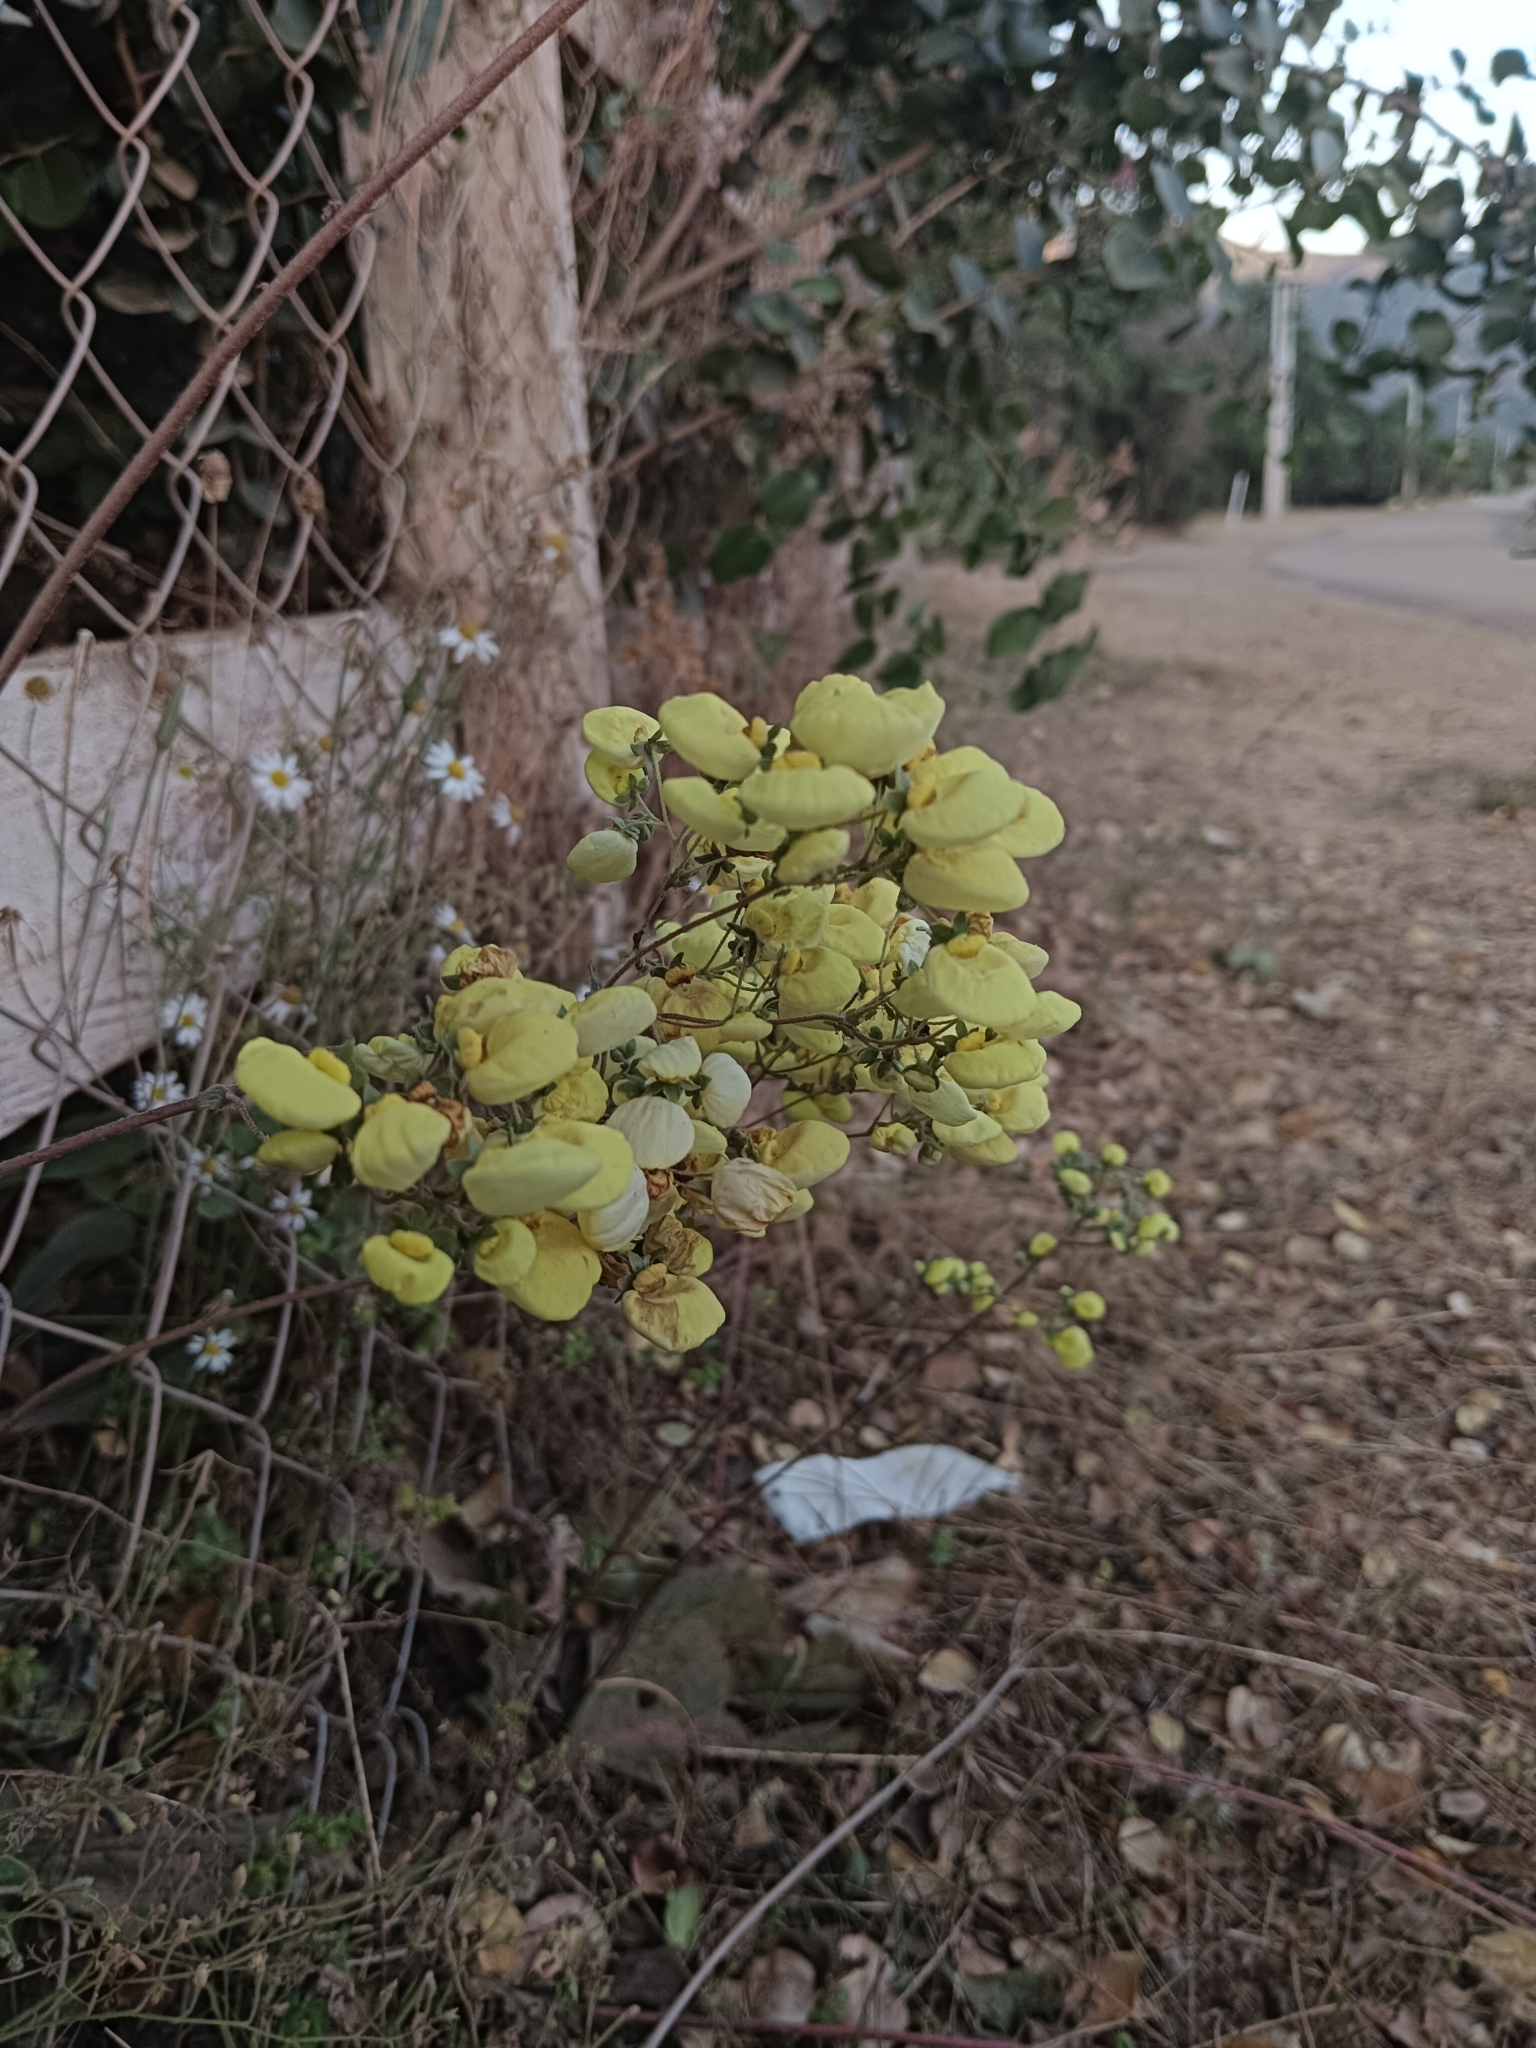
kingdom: Plantae
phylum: Tracheophyta
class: Magnoliopsida
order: Lamiales
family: Calceolariaceae
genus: Calceolaria
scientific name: Calceolaria nudicaulis
